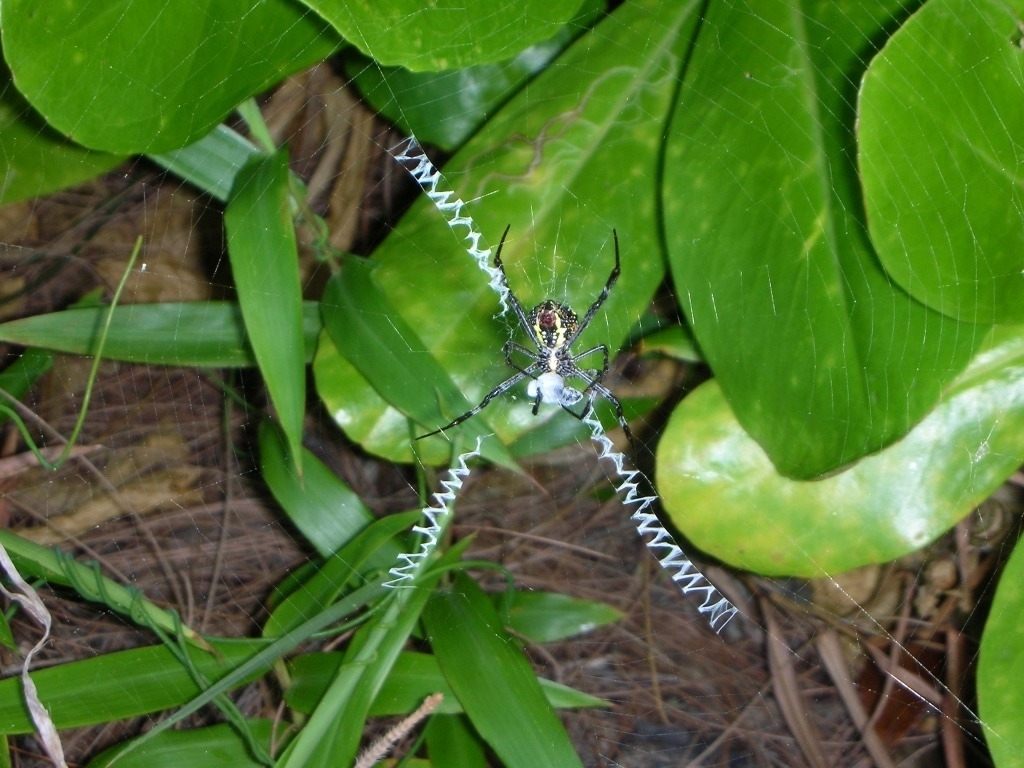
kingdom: Animalia
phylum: Arthropoda
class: Arachnida
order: Araneae
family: Araneidae
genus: Argiope
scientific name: Argiope magnifica
